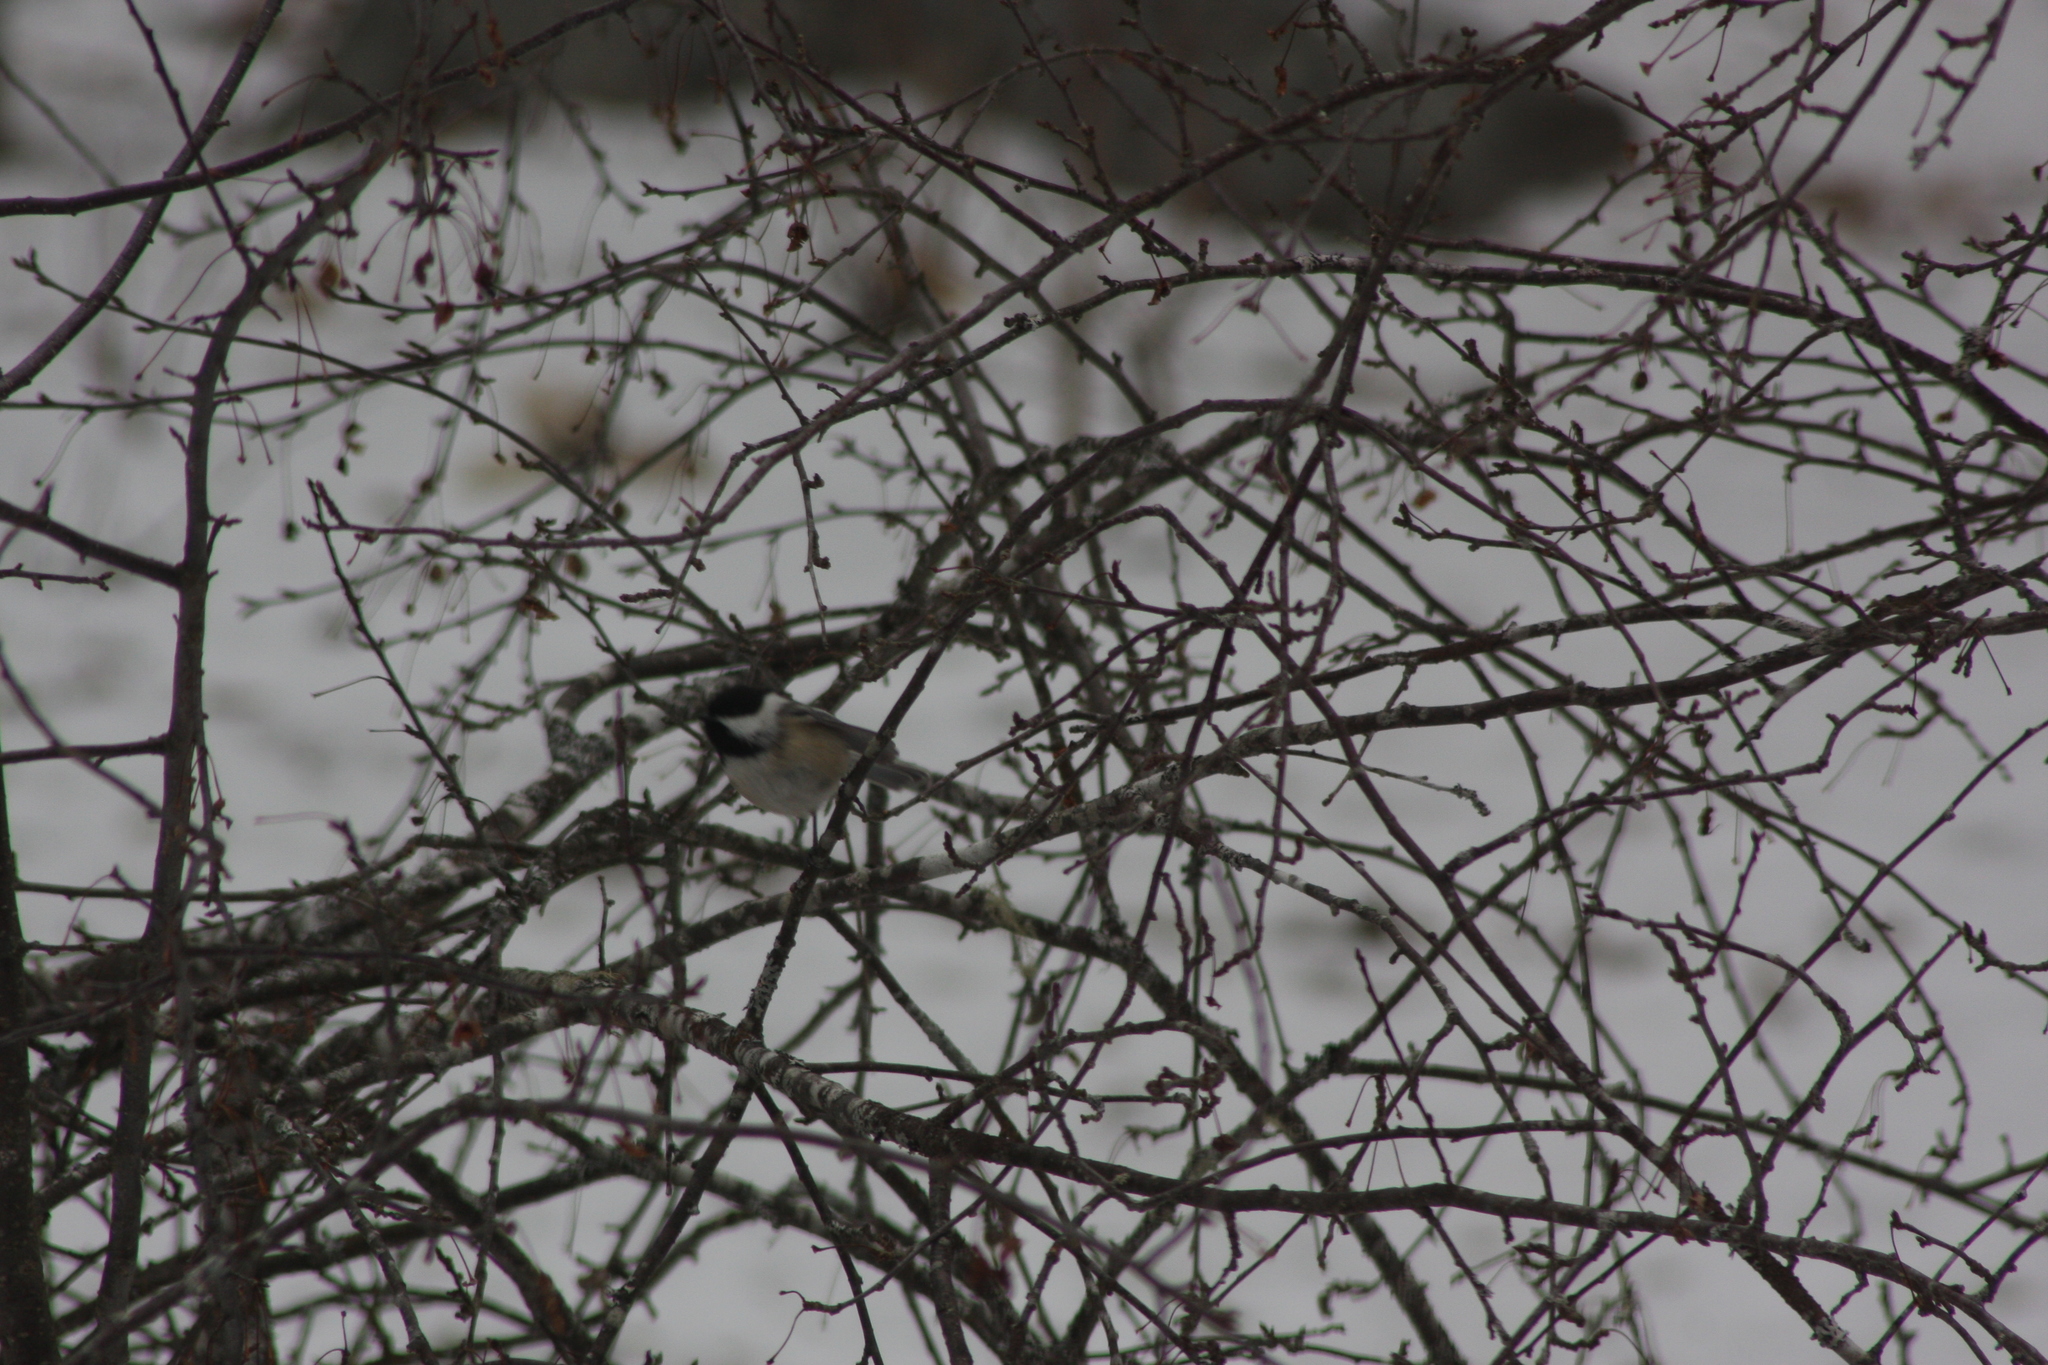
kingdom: Animalia
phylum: Chordata
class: Aves
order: Passeriformes
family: Paridae
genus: Poecile
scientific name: Poecile atricapillus
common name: Black-capped chickadee
